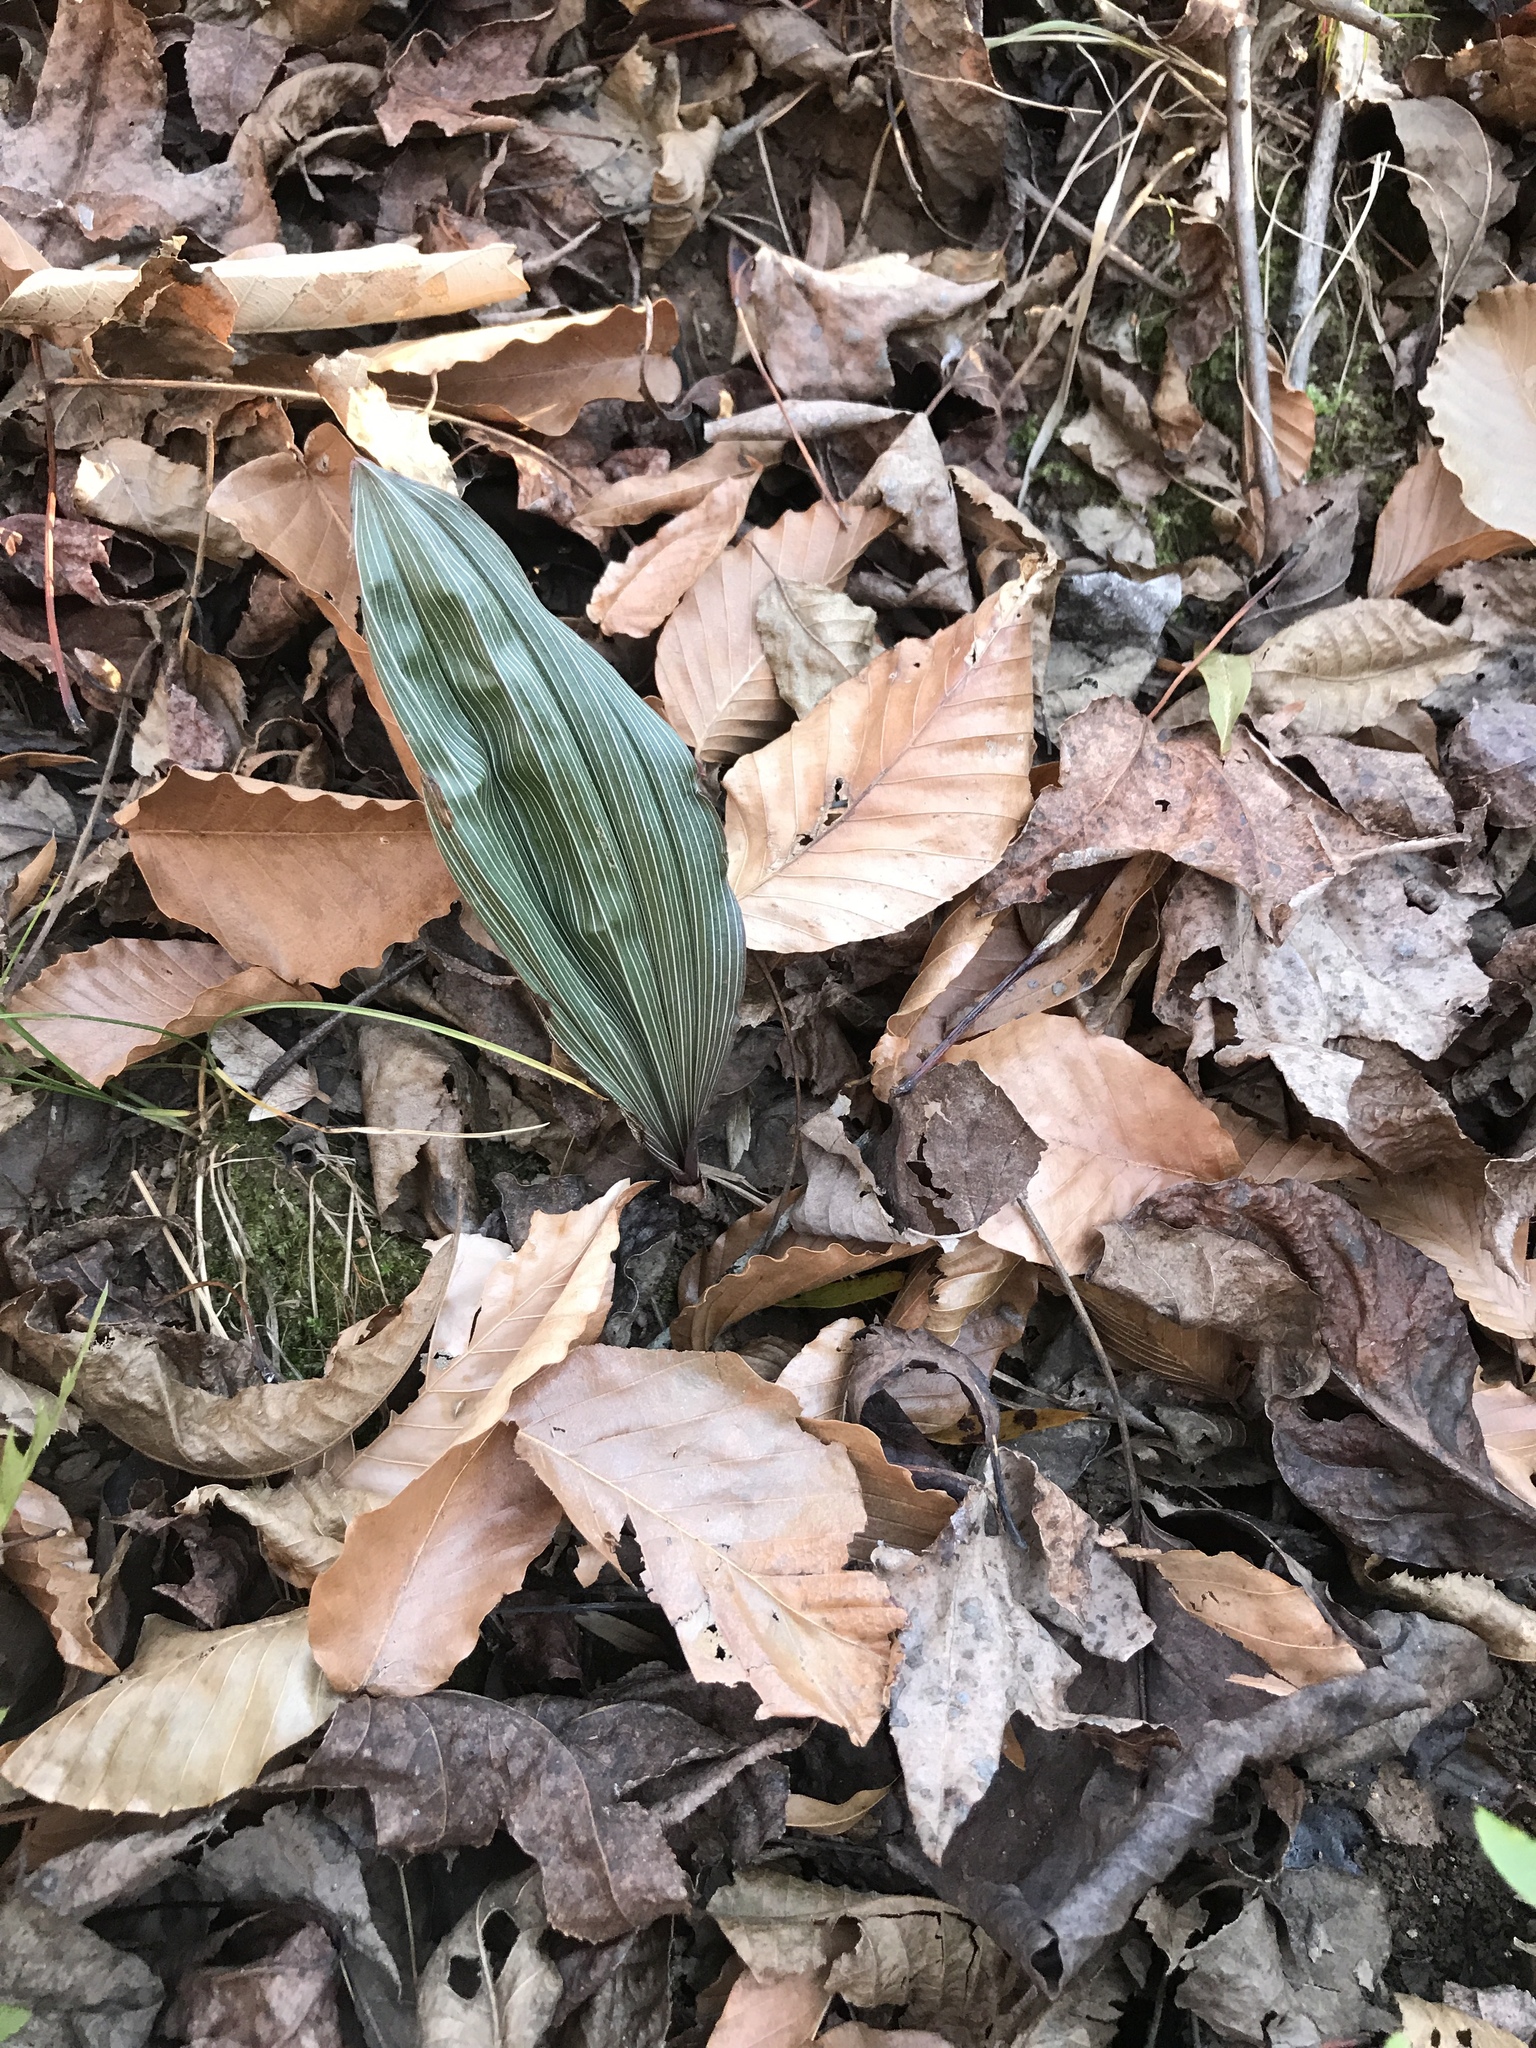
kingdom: Plantae
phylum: Tracheophyta
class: Liliopsida
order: Asparagales
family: Orchidaceae
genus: Aplectrum
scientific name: Aplectrum hyemale
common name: Adam-and-eve
